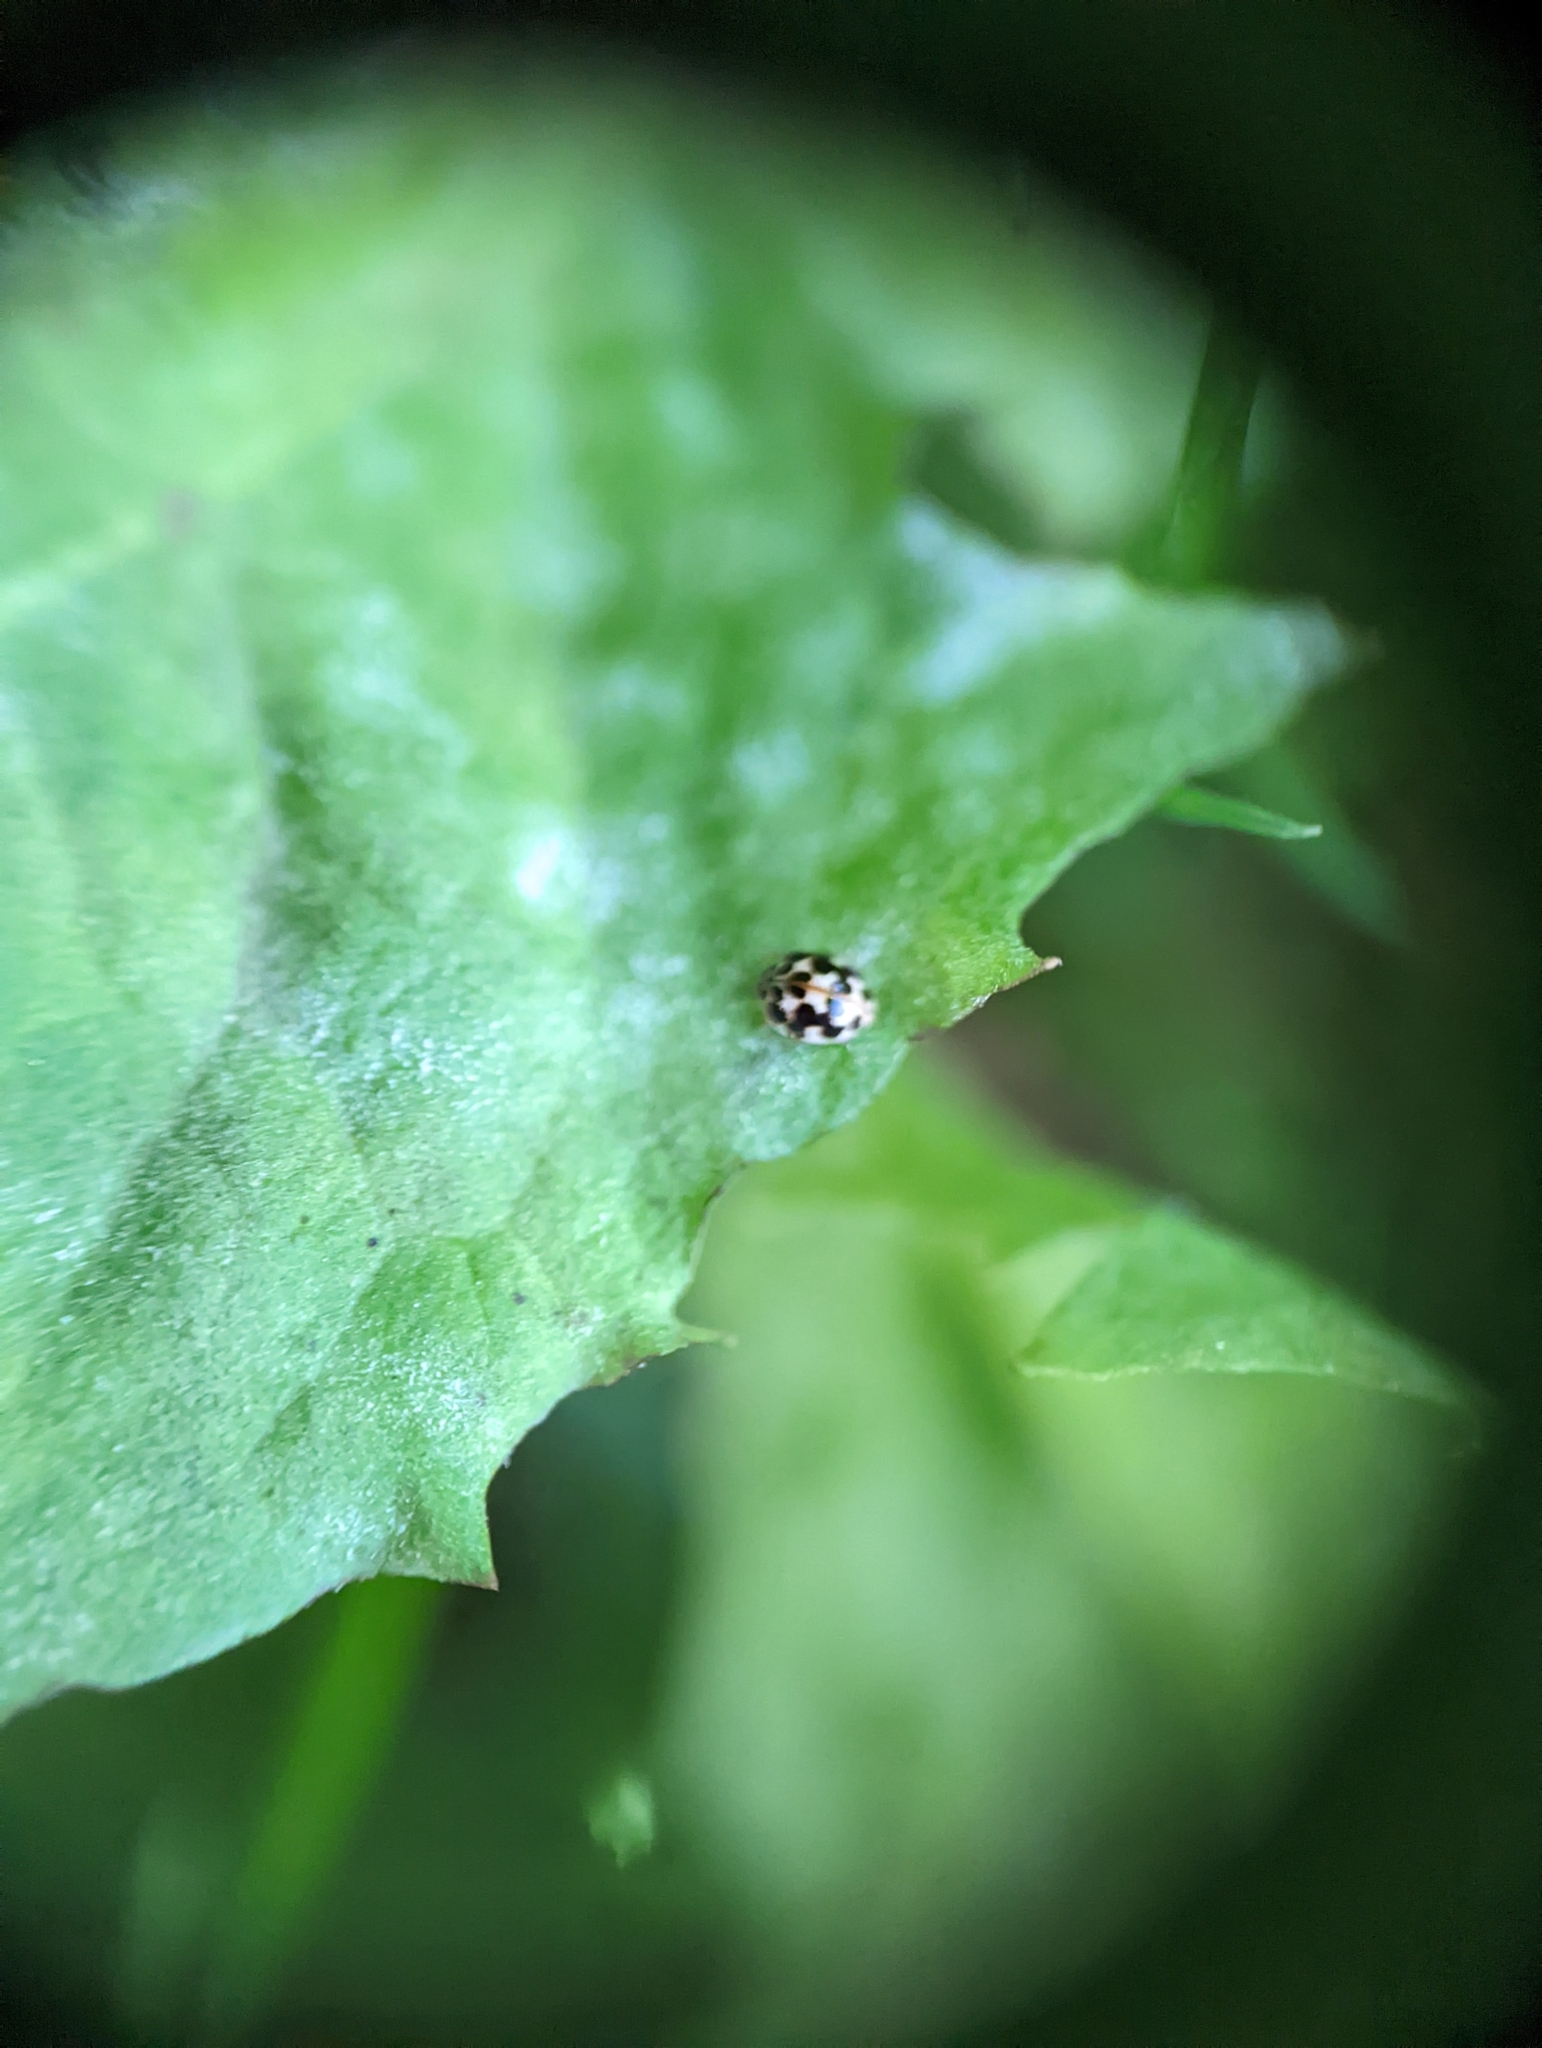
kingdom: Animalia
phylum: Arthropoda
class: Insecta
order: Coleoptera
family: Coccinellidae
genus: Psyllobora
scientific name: Psyllobora vigintimaculata
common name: Ladybird beetle
